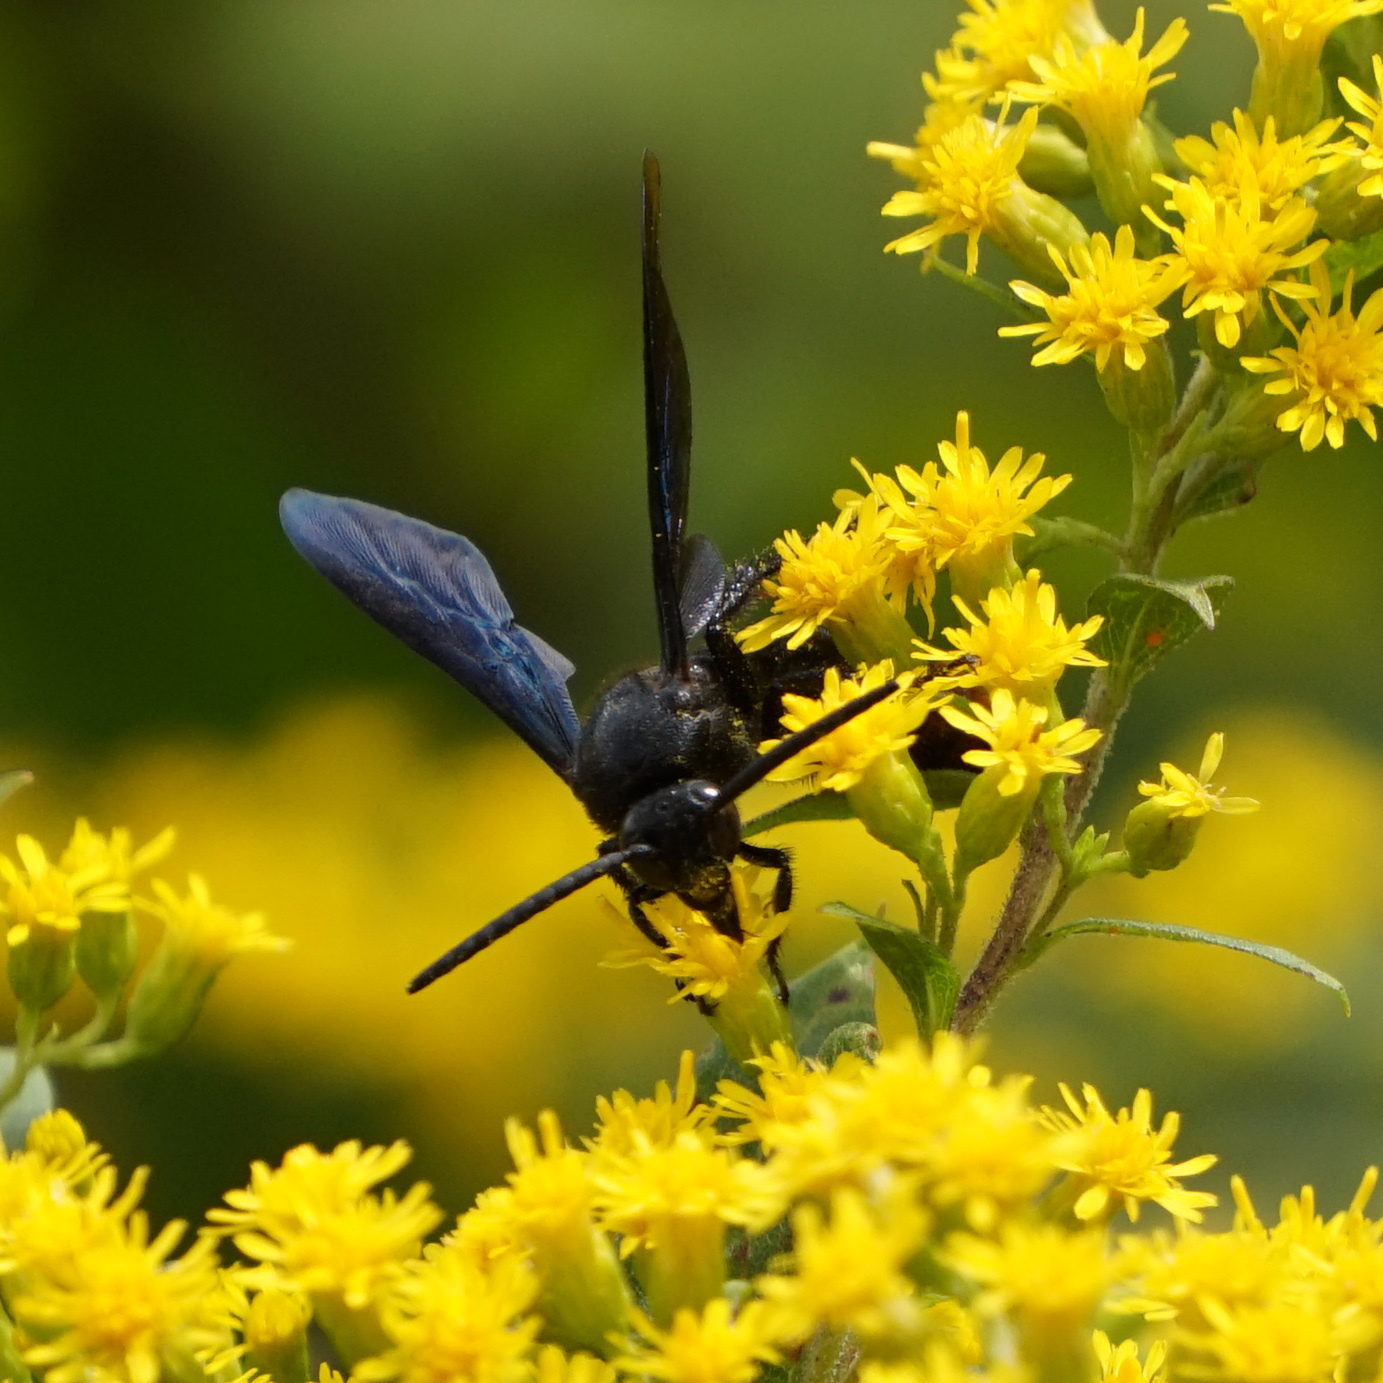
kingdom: Animalia
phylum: Arthropoda
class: Insecta
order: Hymenoptera
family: Scoliidae
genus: Scolia
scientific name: Scolia dubia
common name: Blue-winged scoliid wasp
